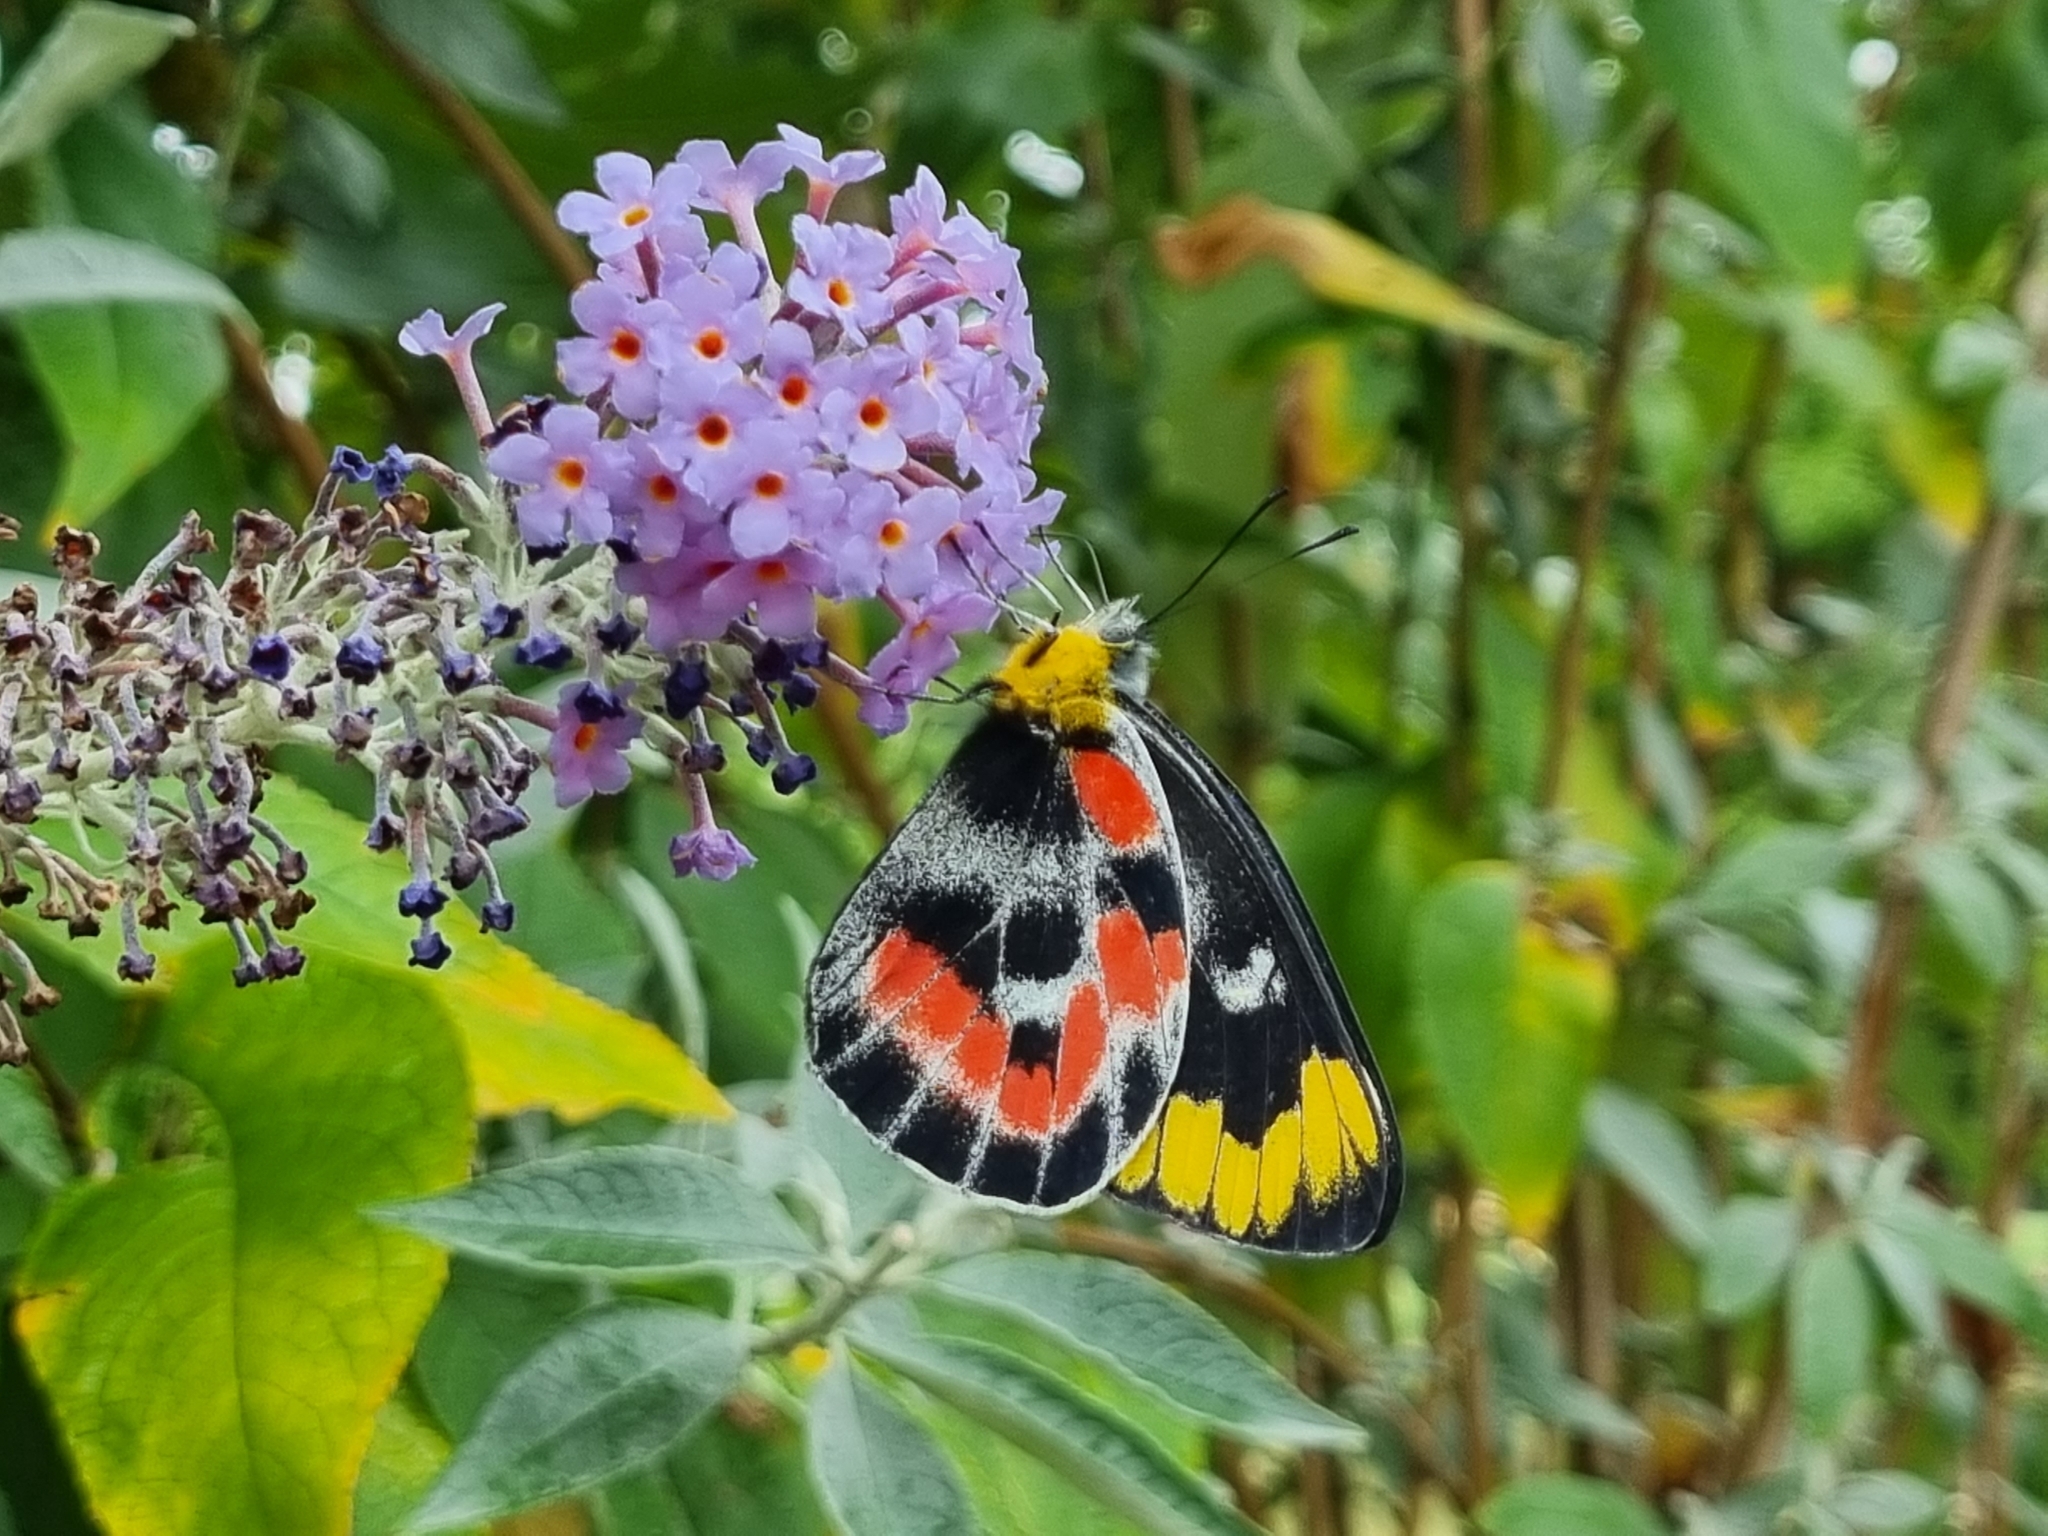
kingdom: Animalia
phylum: Arthropoda
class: Insecta
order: Lepidoptera
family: Pieridae
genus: Delias
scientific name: Delias harpalyce
